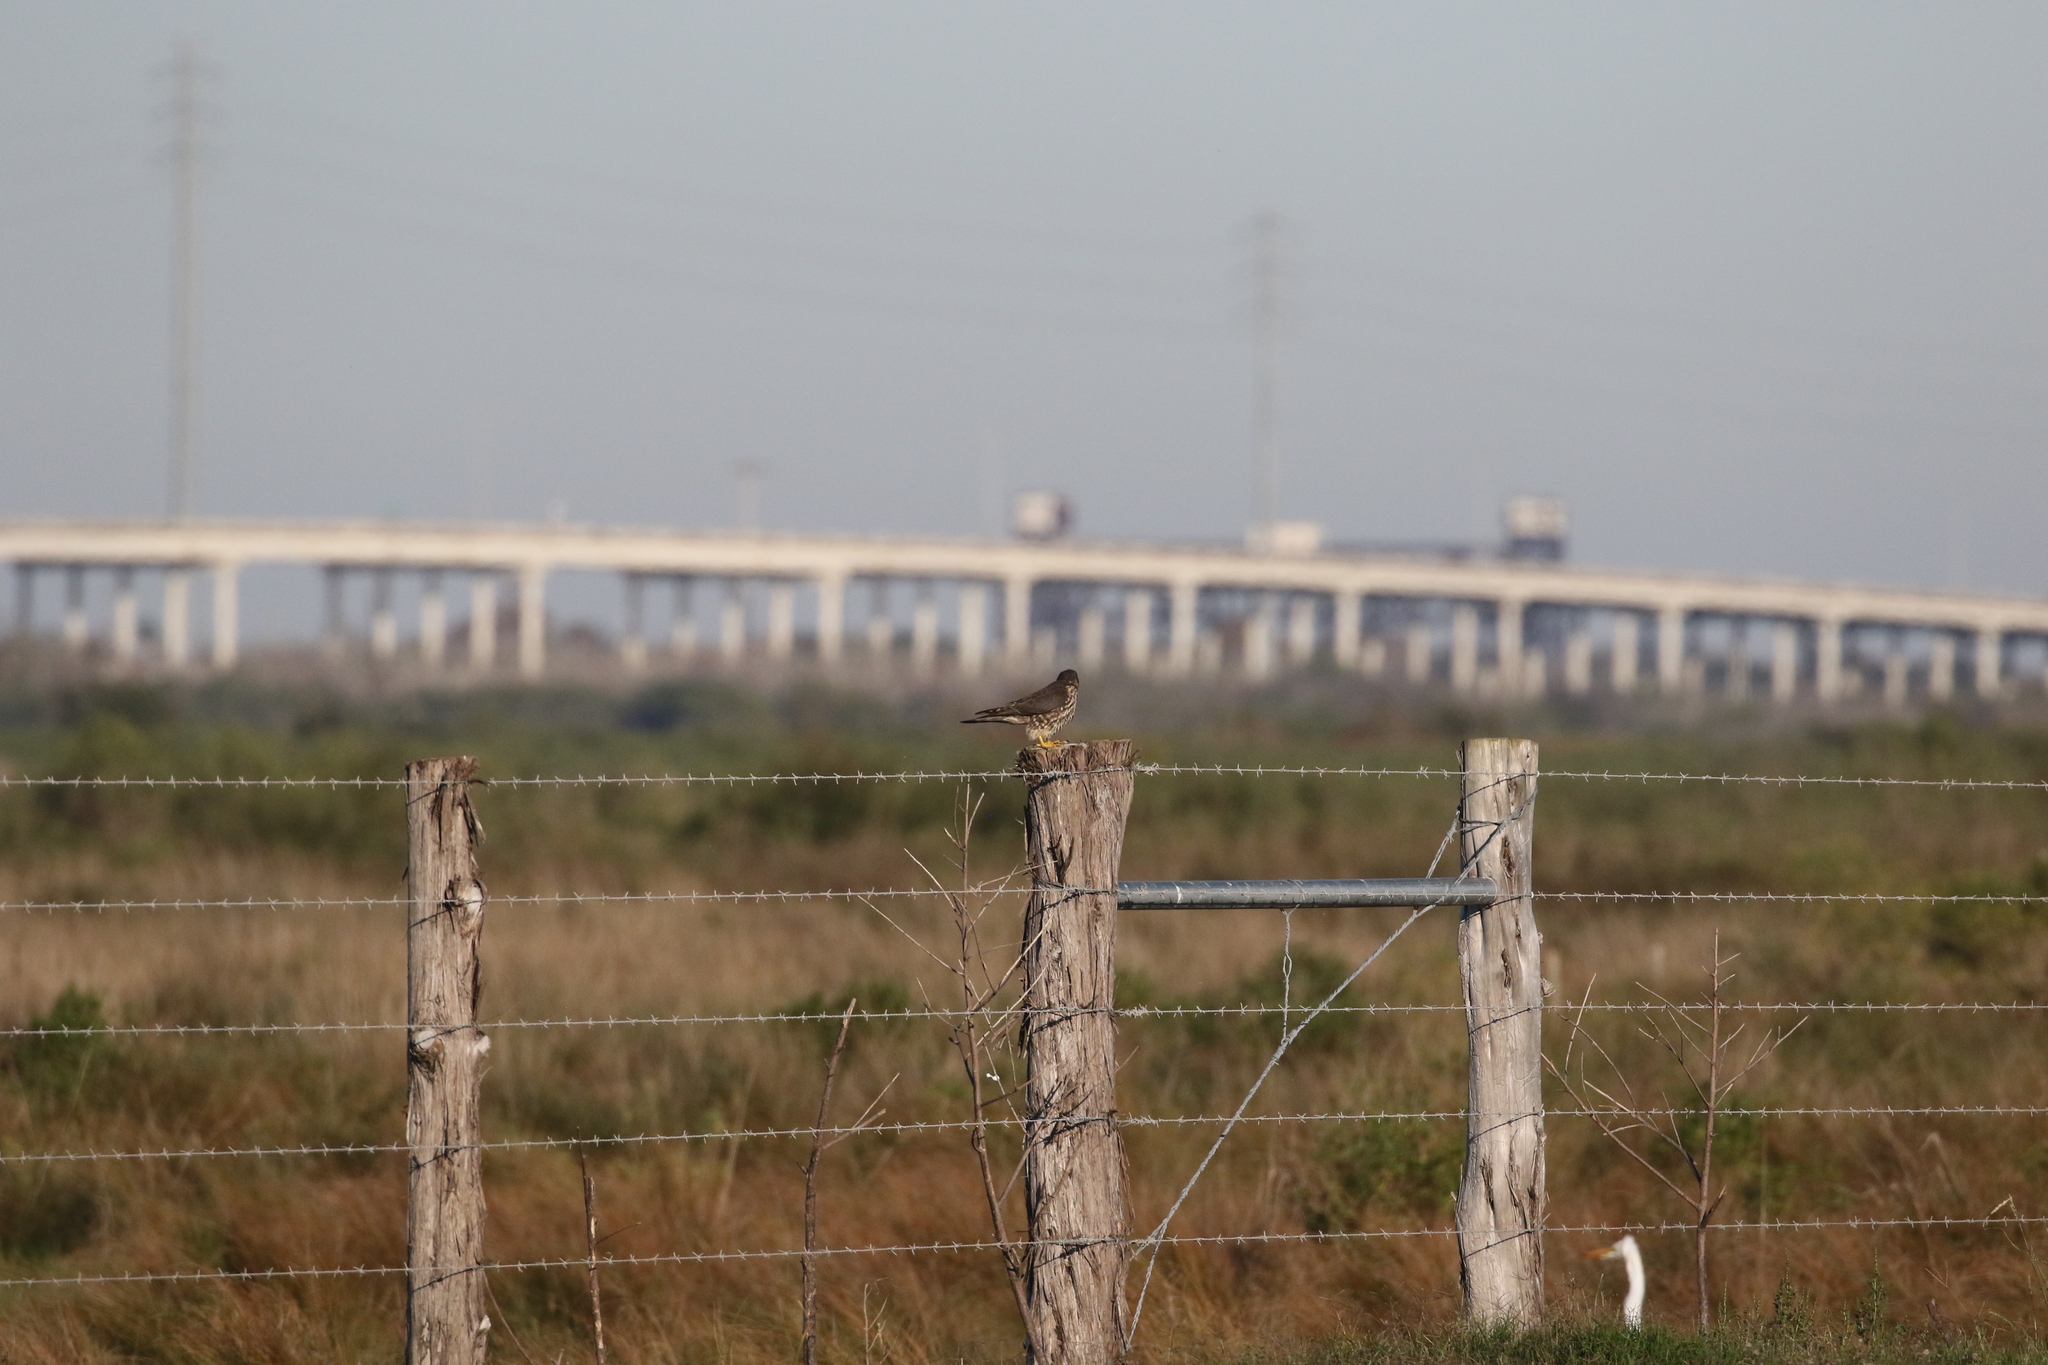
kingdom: Animalia
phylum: Chordata
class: Aves
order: Falconiformes
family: Falconidae
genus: Falco
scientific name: Falco columbarius
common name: Merlin
